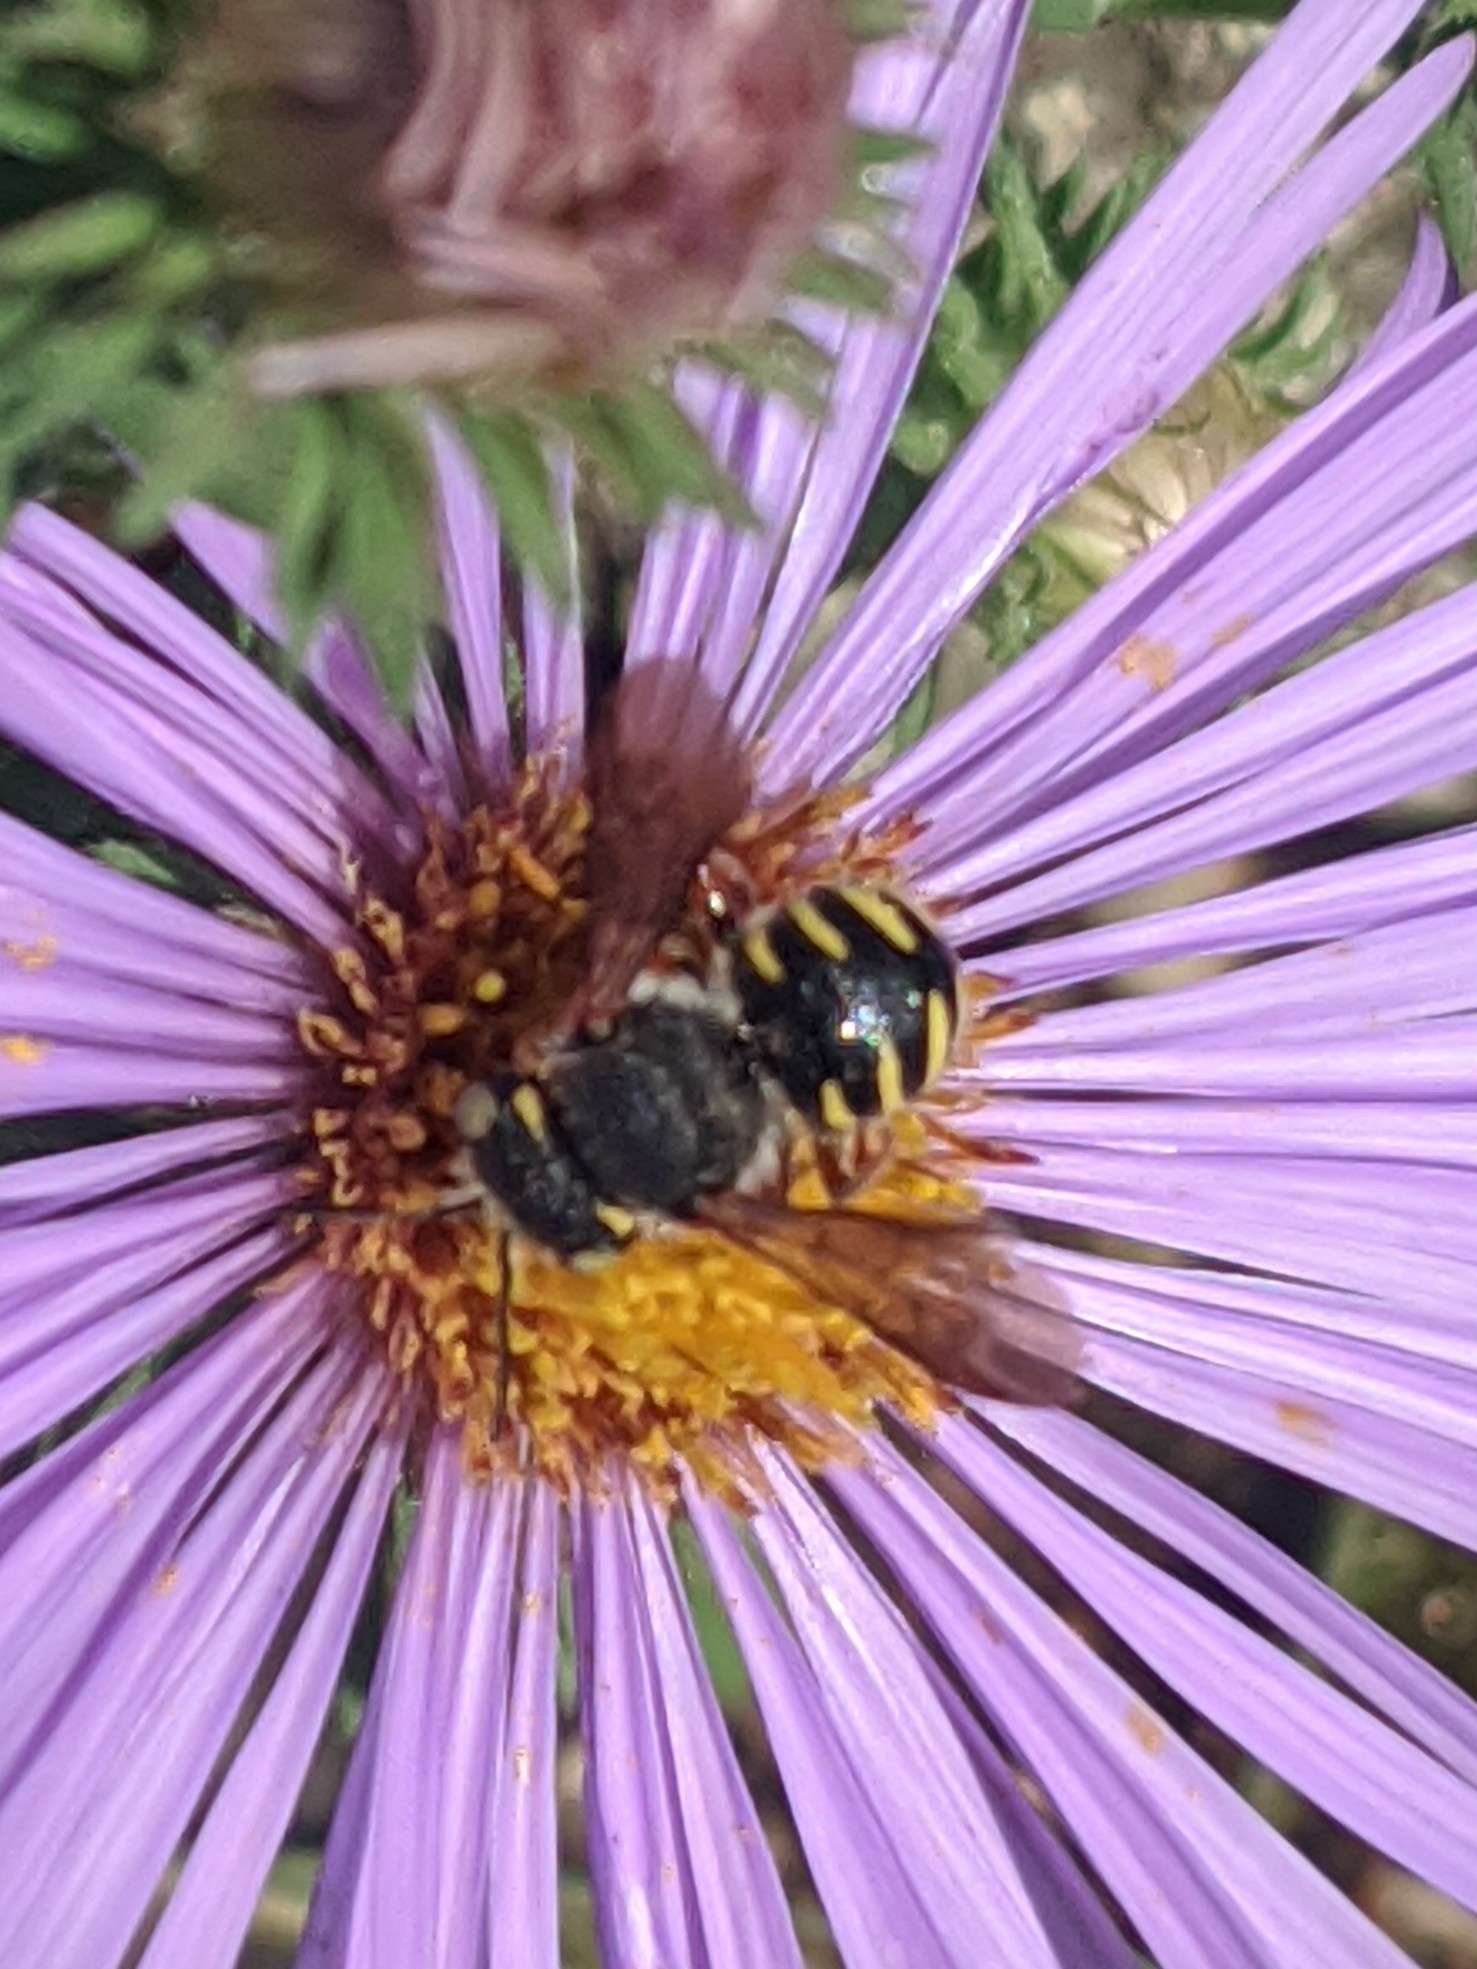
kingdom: Animalia
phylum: Arthropoda
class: Insecta
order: Hymenoptera
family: Megachilidae
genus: Anthidium
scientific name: Anthidium oblongatum
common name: Oblong wool carder bee
